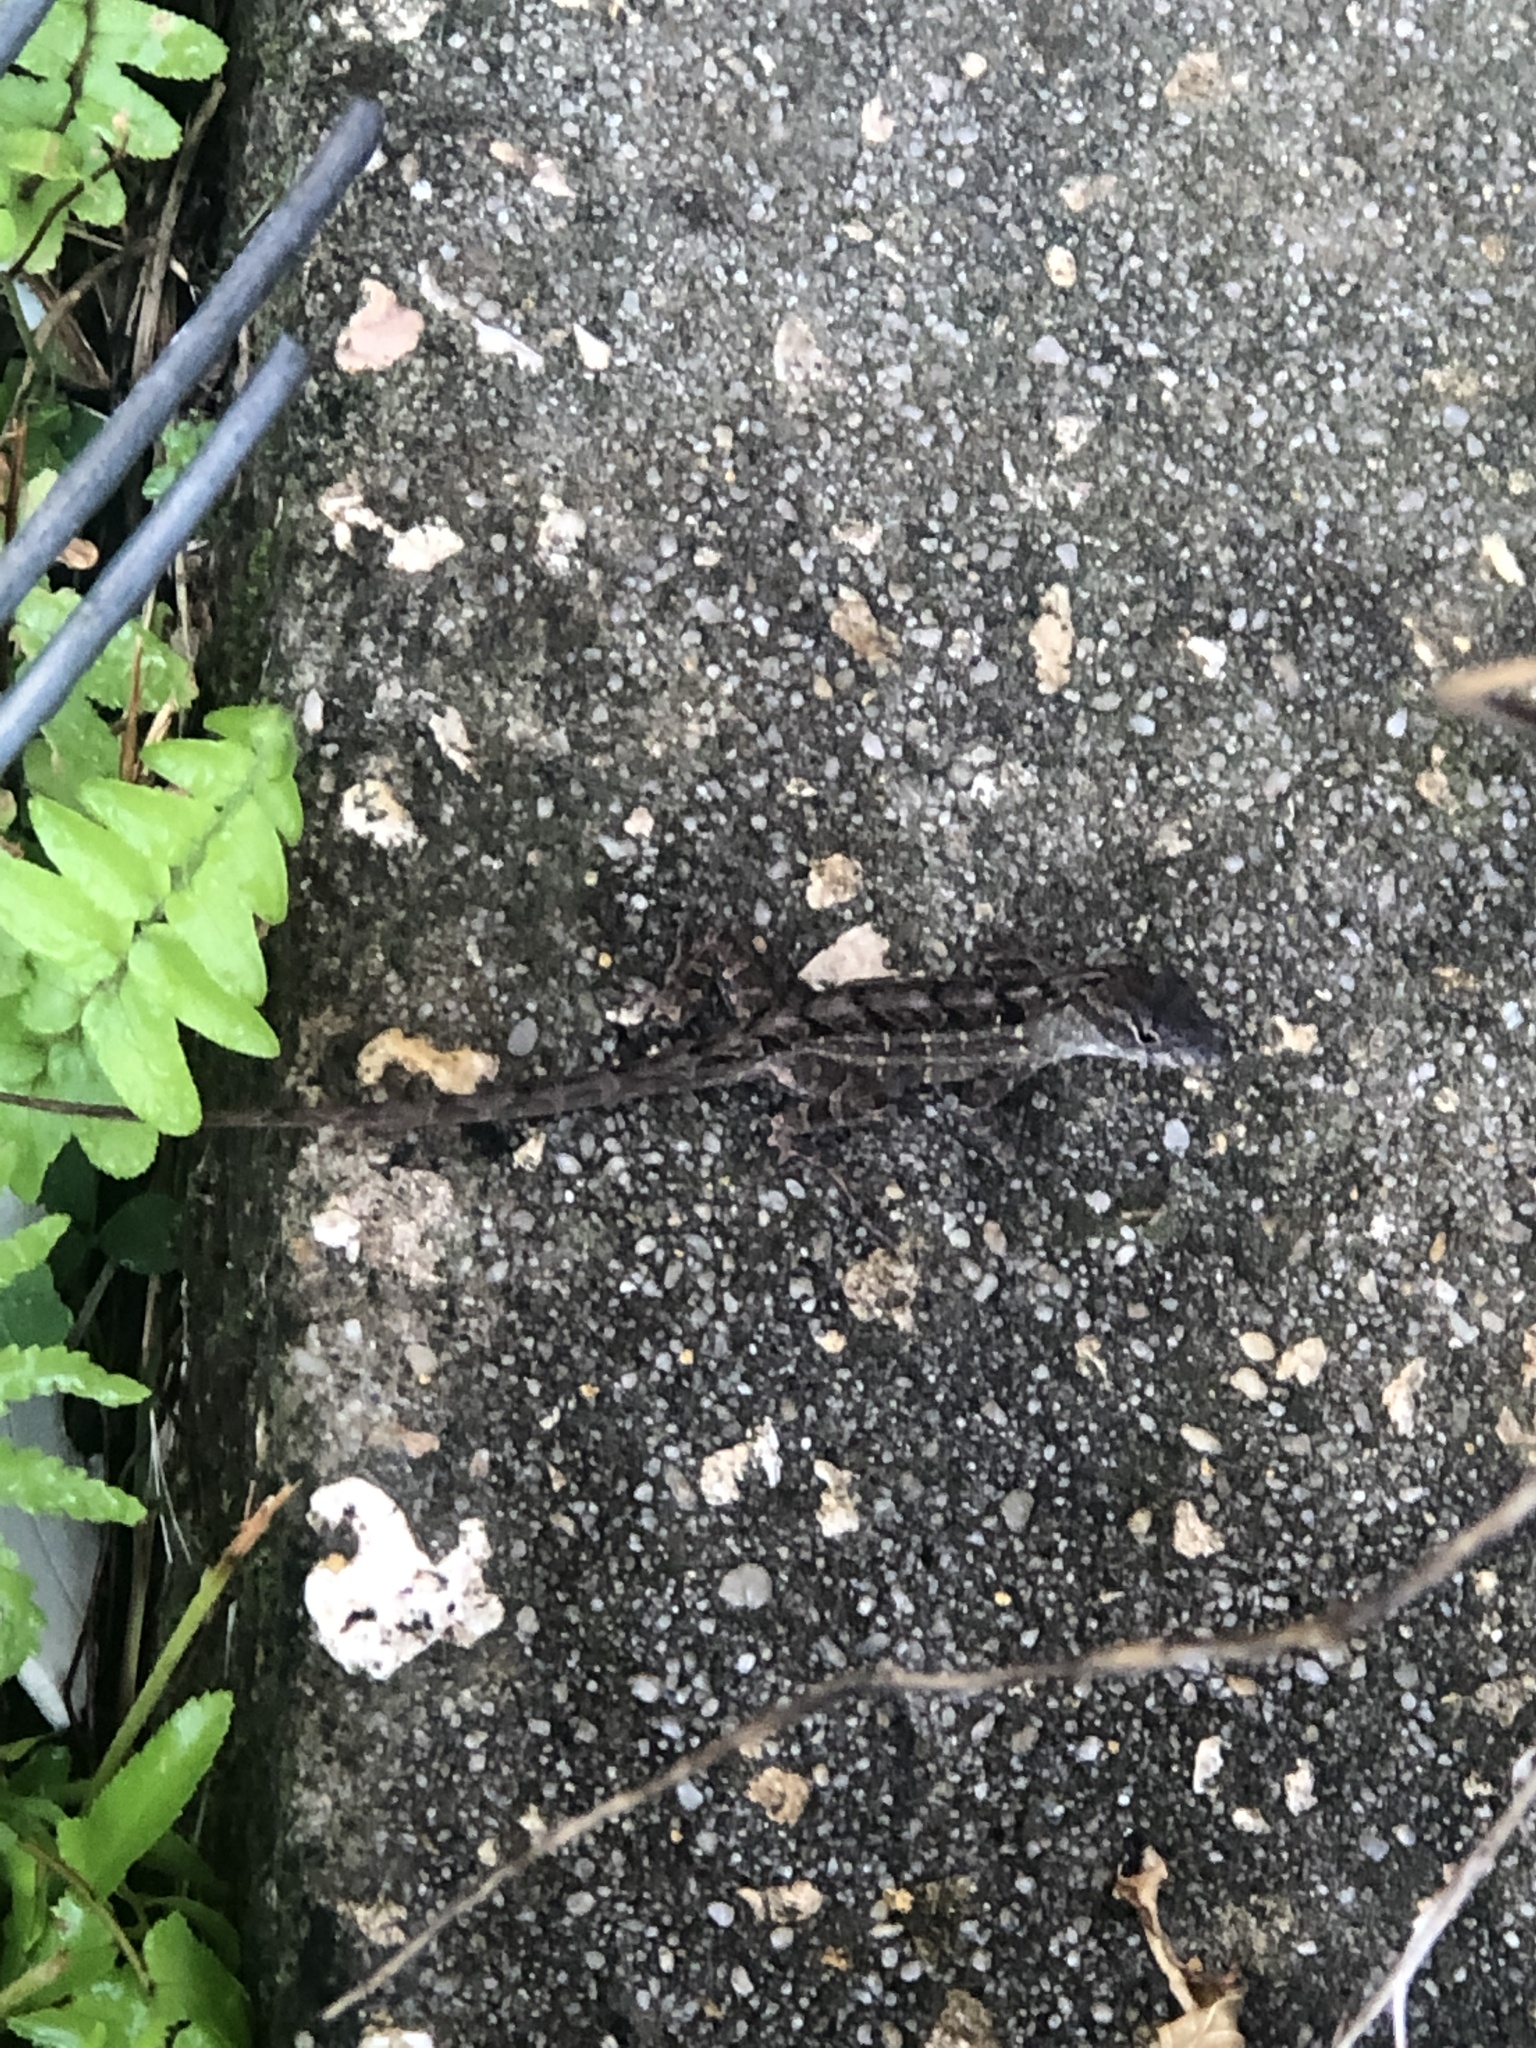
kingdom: Animalia
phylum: Chordata
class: Squamata
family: Dactyloidae
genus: Anolis
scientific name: Anolis sagrei
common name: Brown anole
